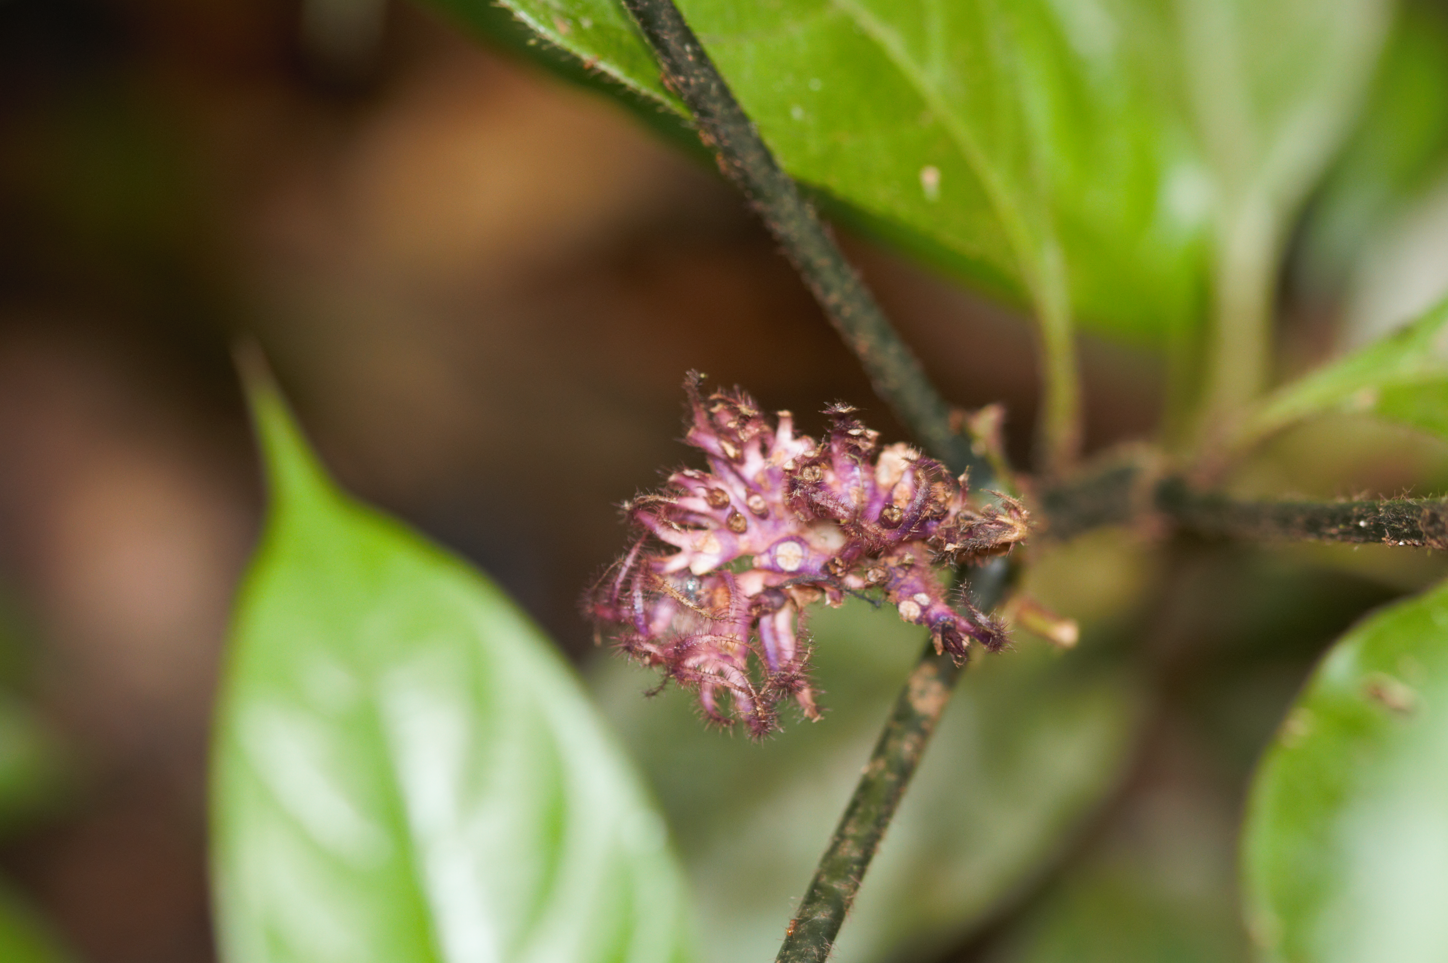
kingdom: Plantae
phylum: Tracheophyta
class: Magnoliopsida
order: Gentianales
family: Rubiaceae
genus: Palicourea
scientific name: Palicourea glabra
